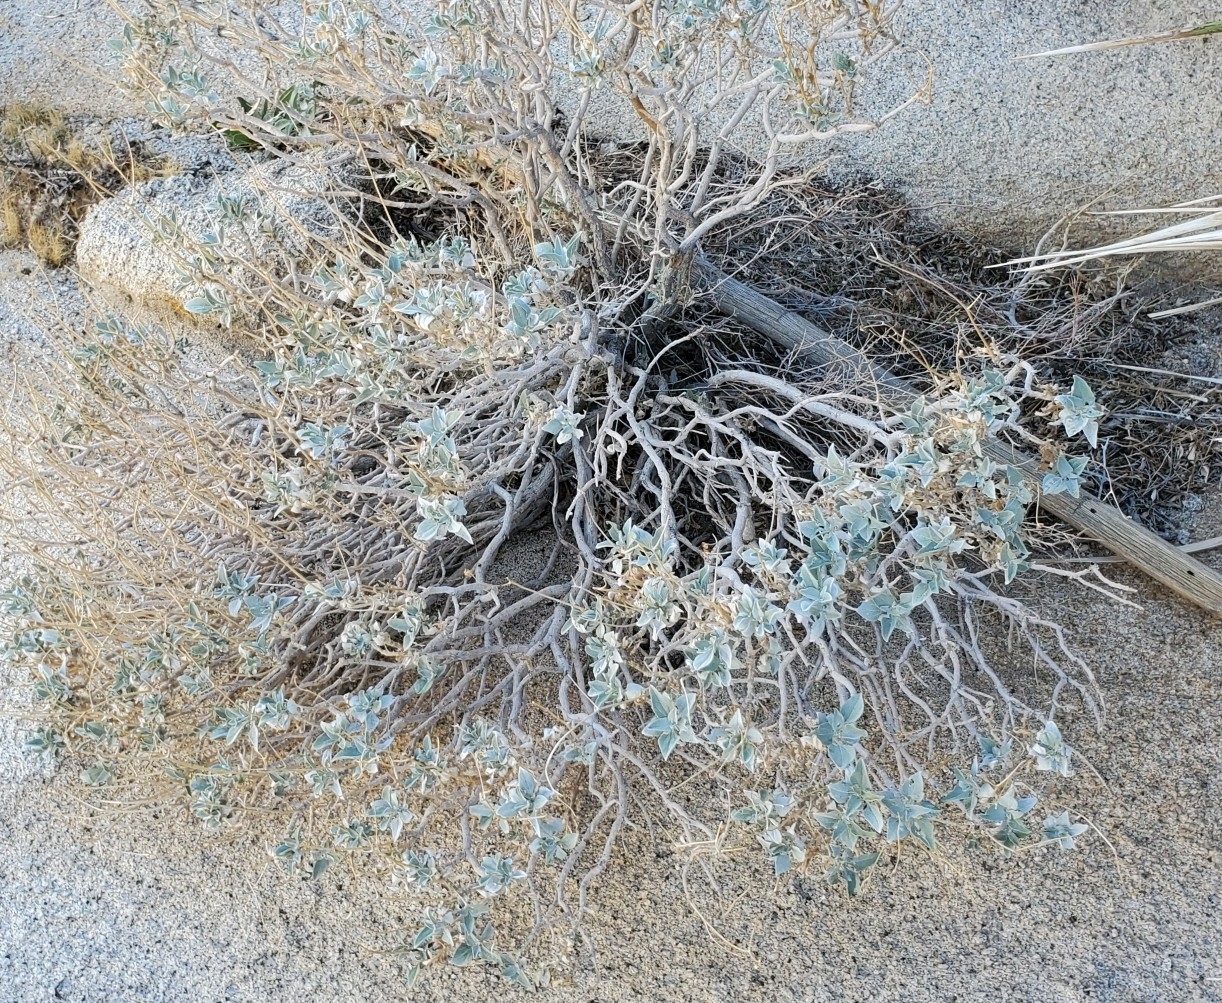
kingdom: Plantae
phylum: Tracheophyta
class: Magnoliopsida
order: Asterales
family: Asteraceae
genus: Encelia
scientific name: Encelia farinosa
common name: Brittlebush
